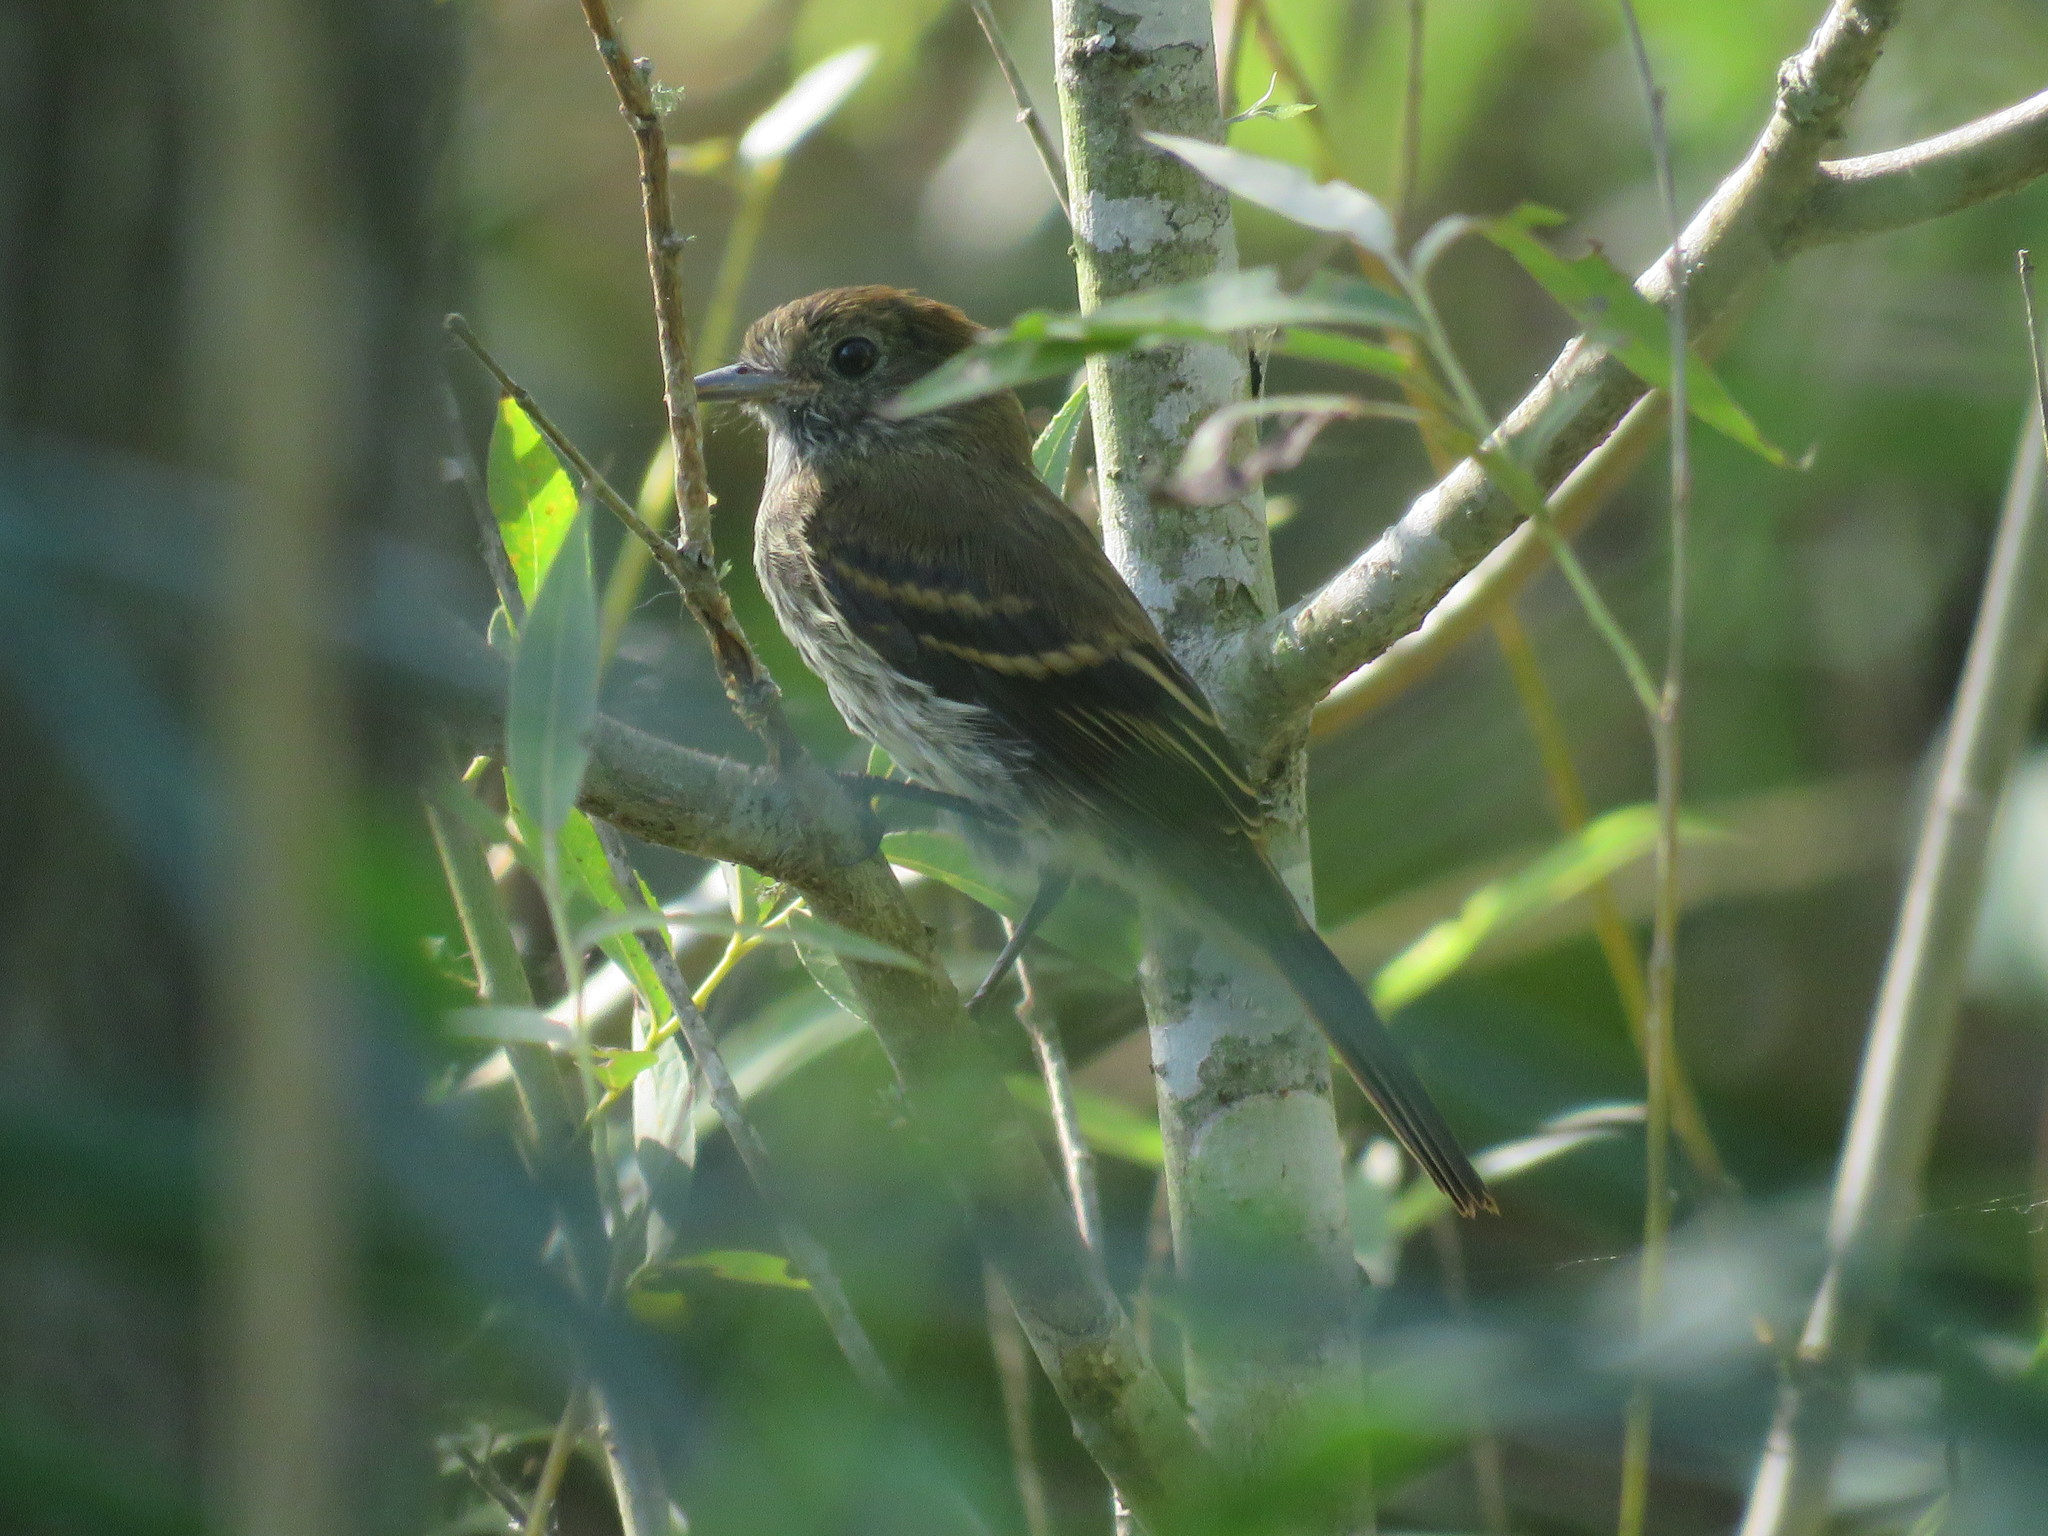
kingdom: Animalia
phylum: Chordata
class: Aves
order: Passeriformes
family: Tyrannidae
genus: Knipolegus
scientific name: Knipolegus cyanirostris
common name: Blue-billed black tyrant
